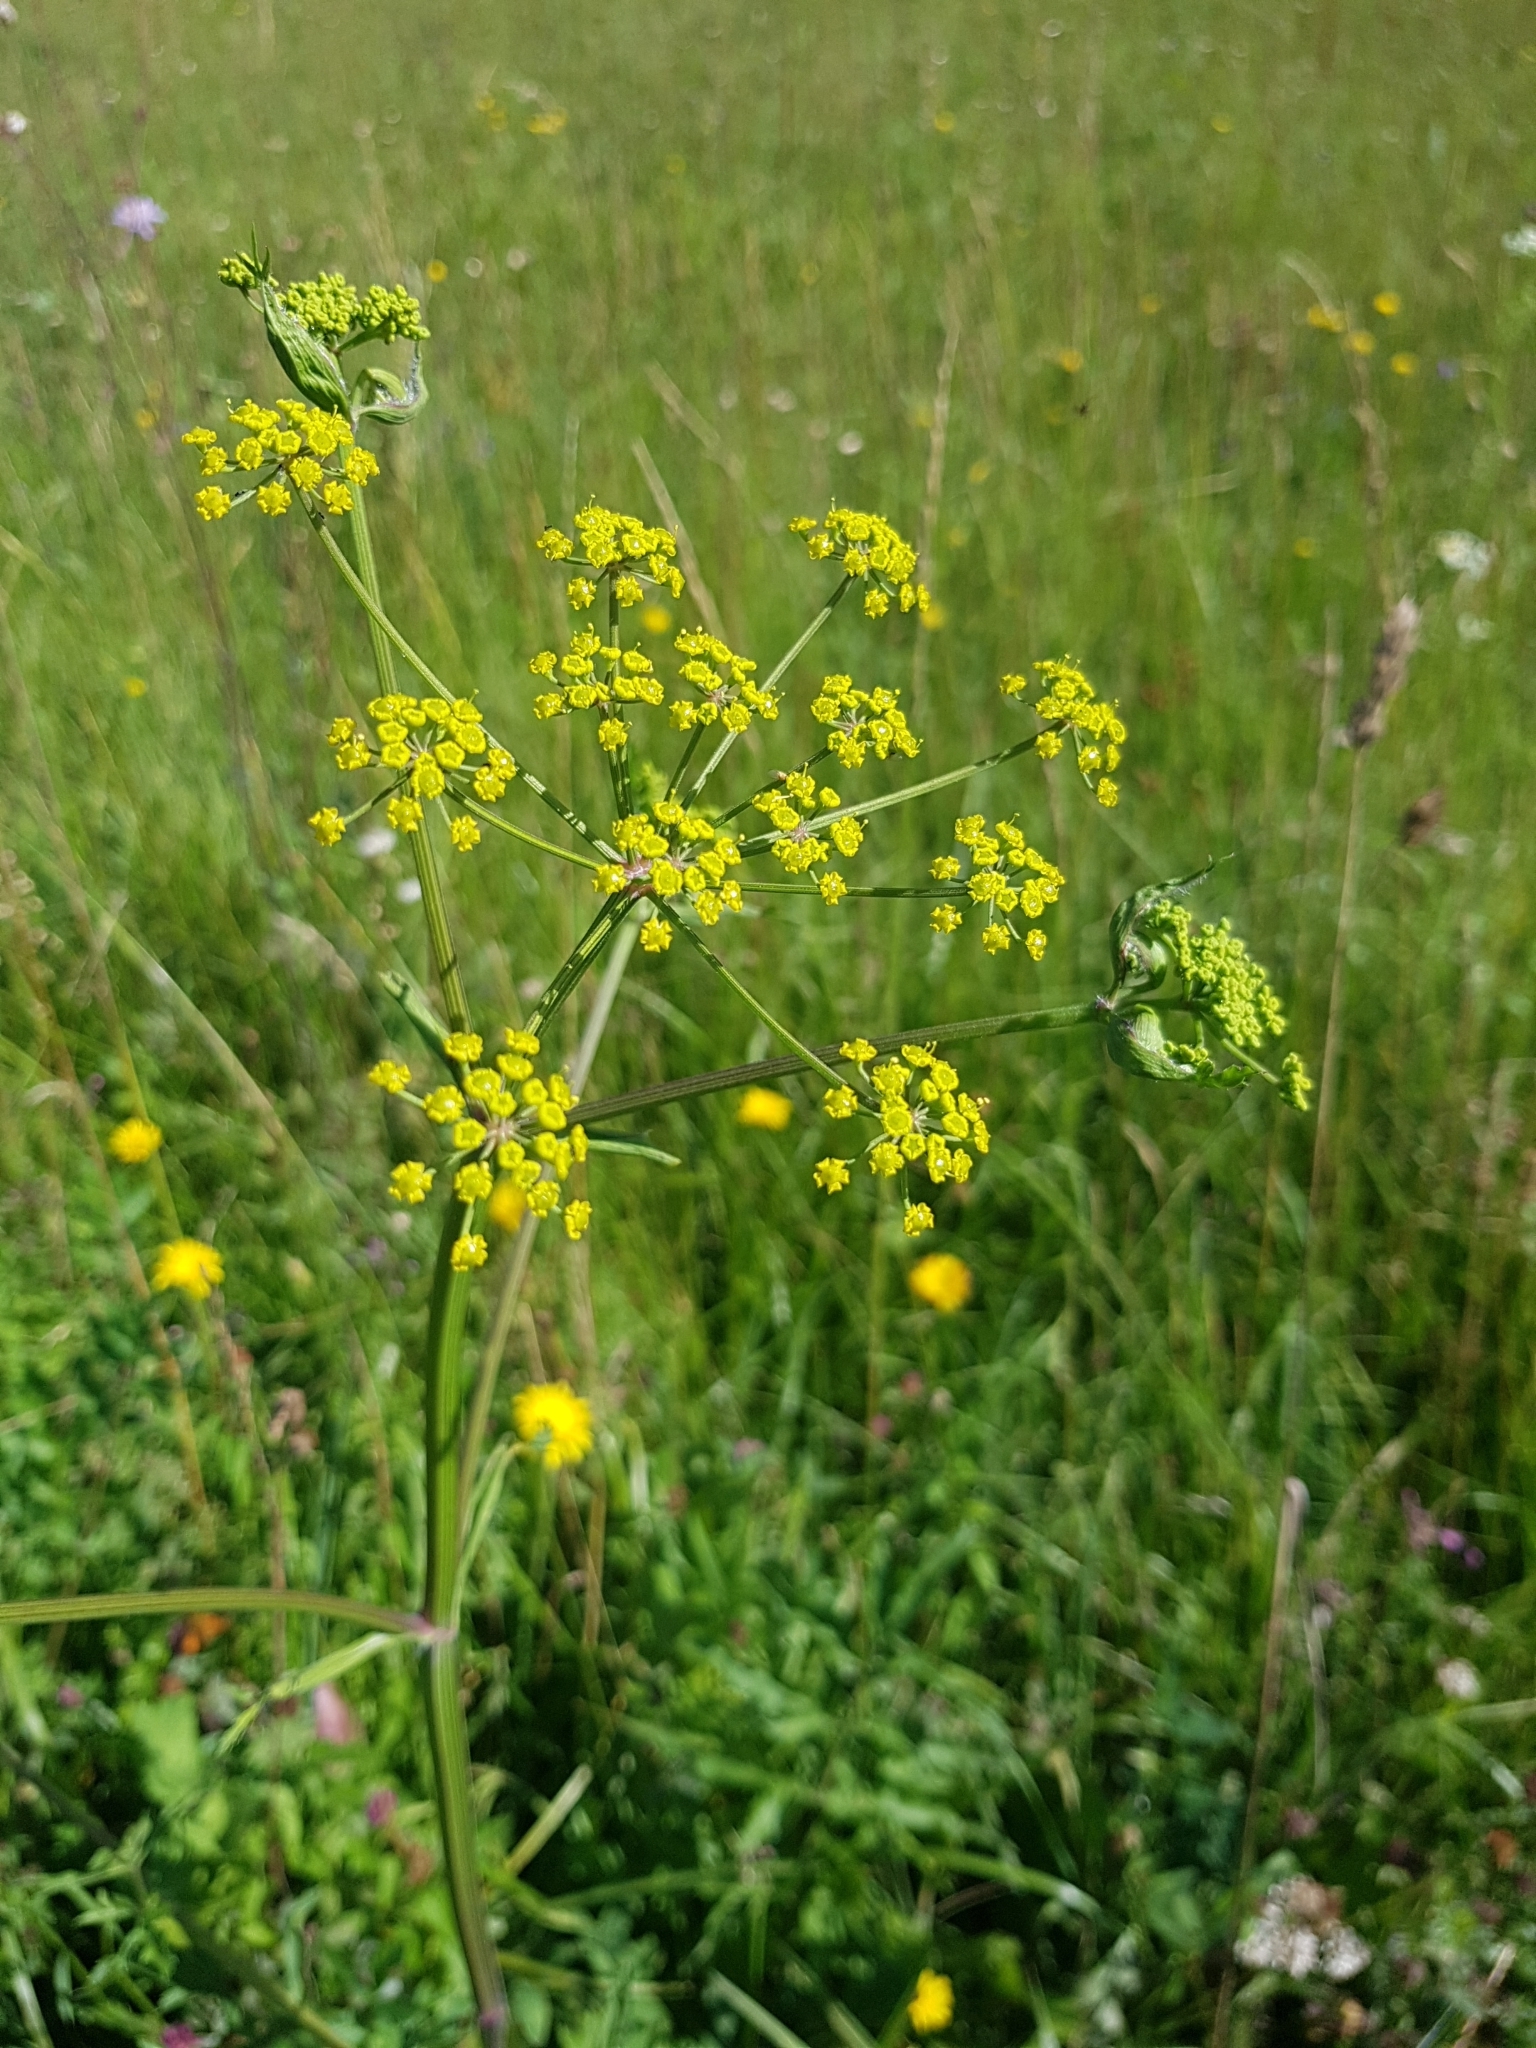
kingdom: Plantae
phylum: Tracheophyta
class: Magnoliopsida
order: Apiales
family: Apiaceae
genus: Pastinaca
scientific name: Pastinaca sativa
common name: Wild parsnip
